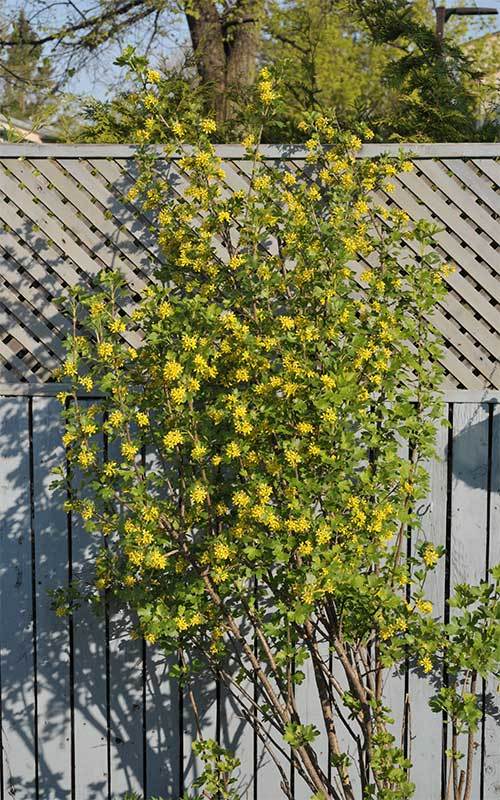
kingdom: Plantae
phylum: Tracheophyta
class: Magnoliopsida
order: Saxifragales
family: Grossulariaceae
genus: Ribes
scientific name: Ribes aureum
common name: Golden currant
